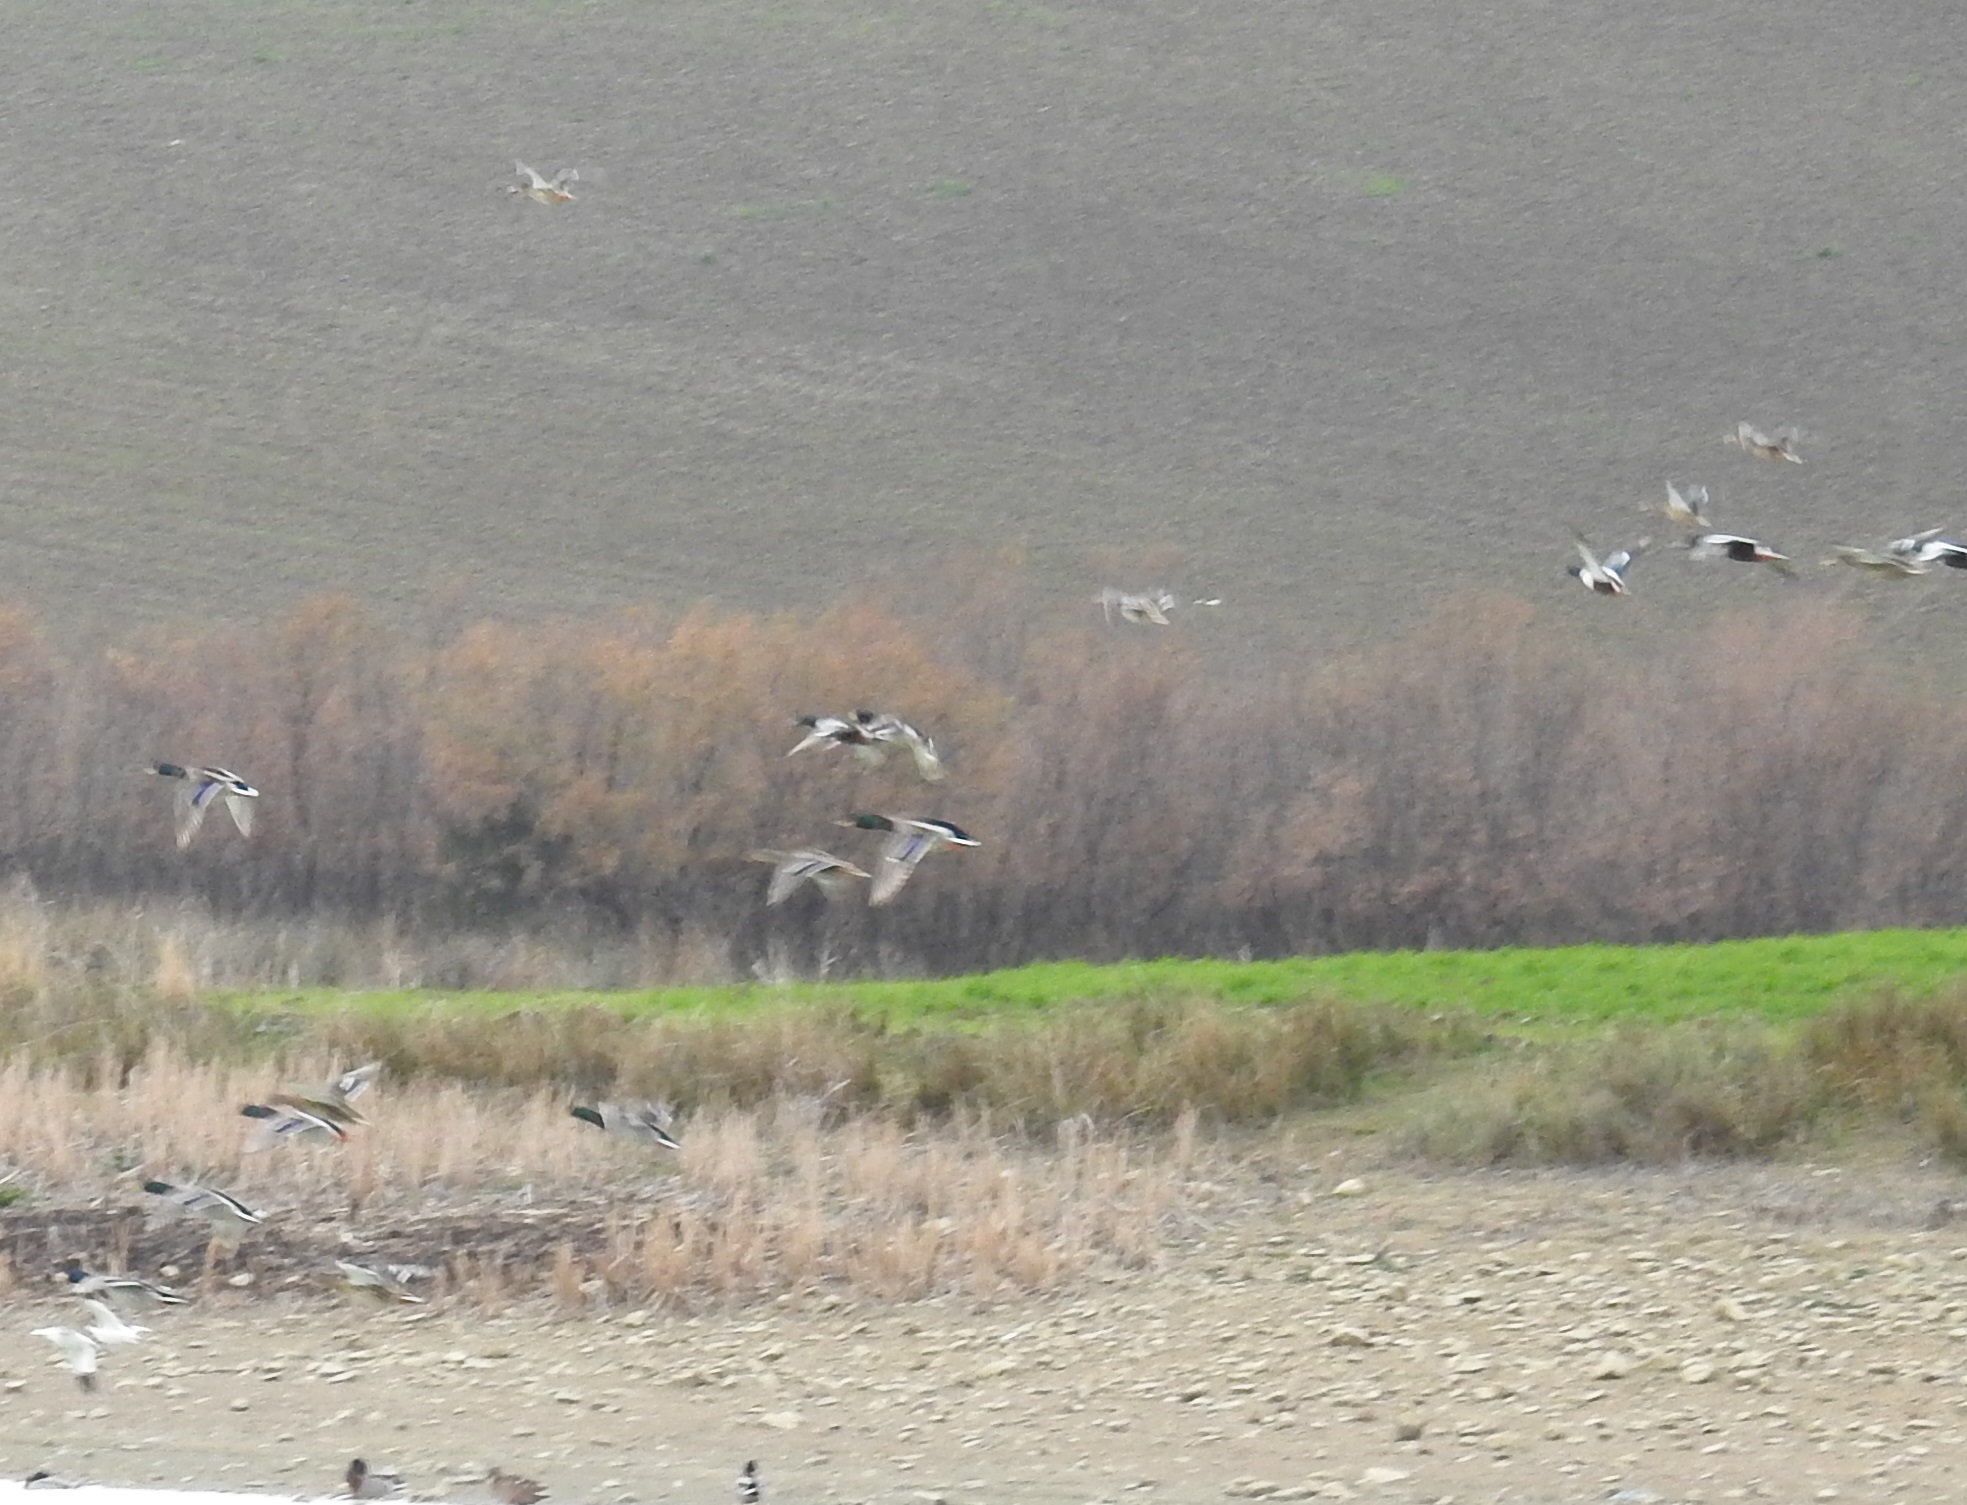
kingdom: Animalia
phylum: Chordata
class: Aves
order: Anseriformes
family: Anatidae
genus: Anas
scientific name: Anas platyrhynchos
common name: Mallard
